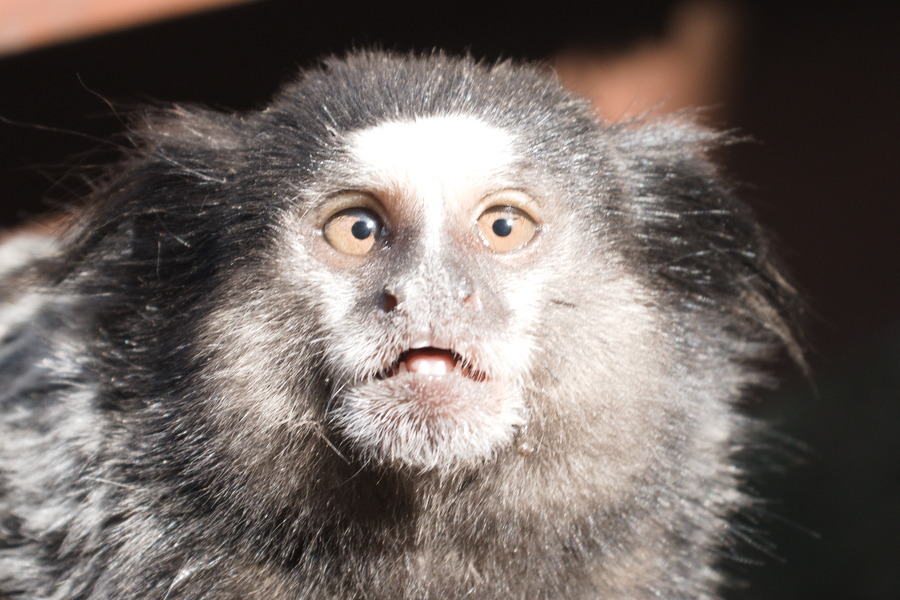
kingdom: Animalia
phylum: Chordata
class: Mammalia
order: Primates
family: Callitrichidae
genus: Callithrix
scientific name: Callithrix penicillata
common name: Black-tufted marmoset
